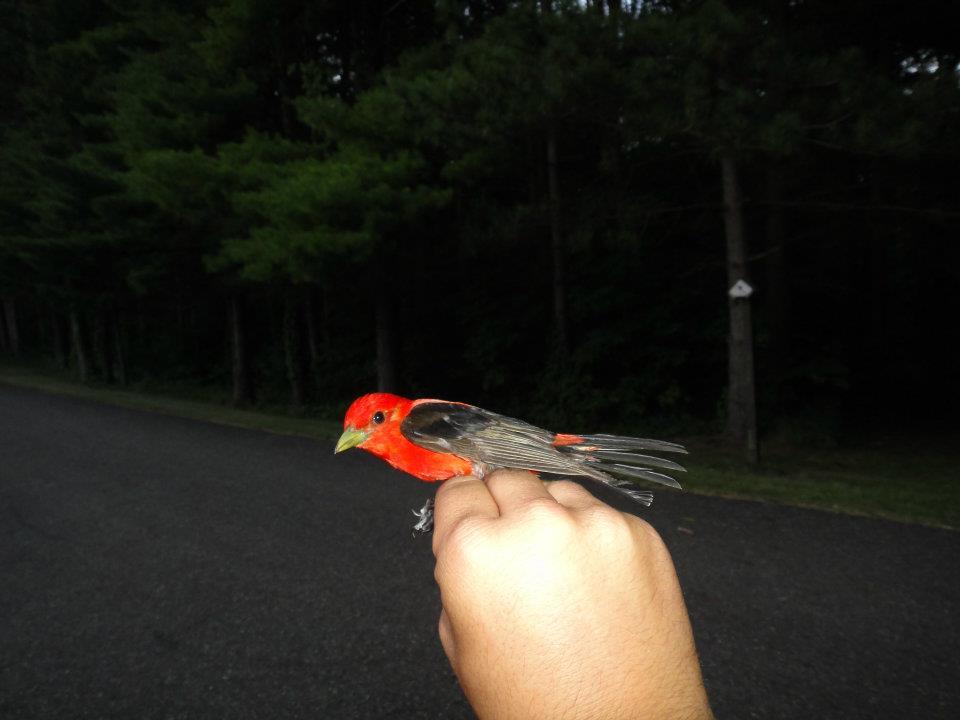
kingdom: Animalia
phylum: Chordata
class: Aves
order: Passeriformes
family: Cardinalidae
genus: Piranga
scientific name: Piranga olivacea
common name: Scarlet tanager
